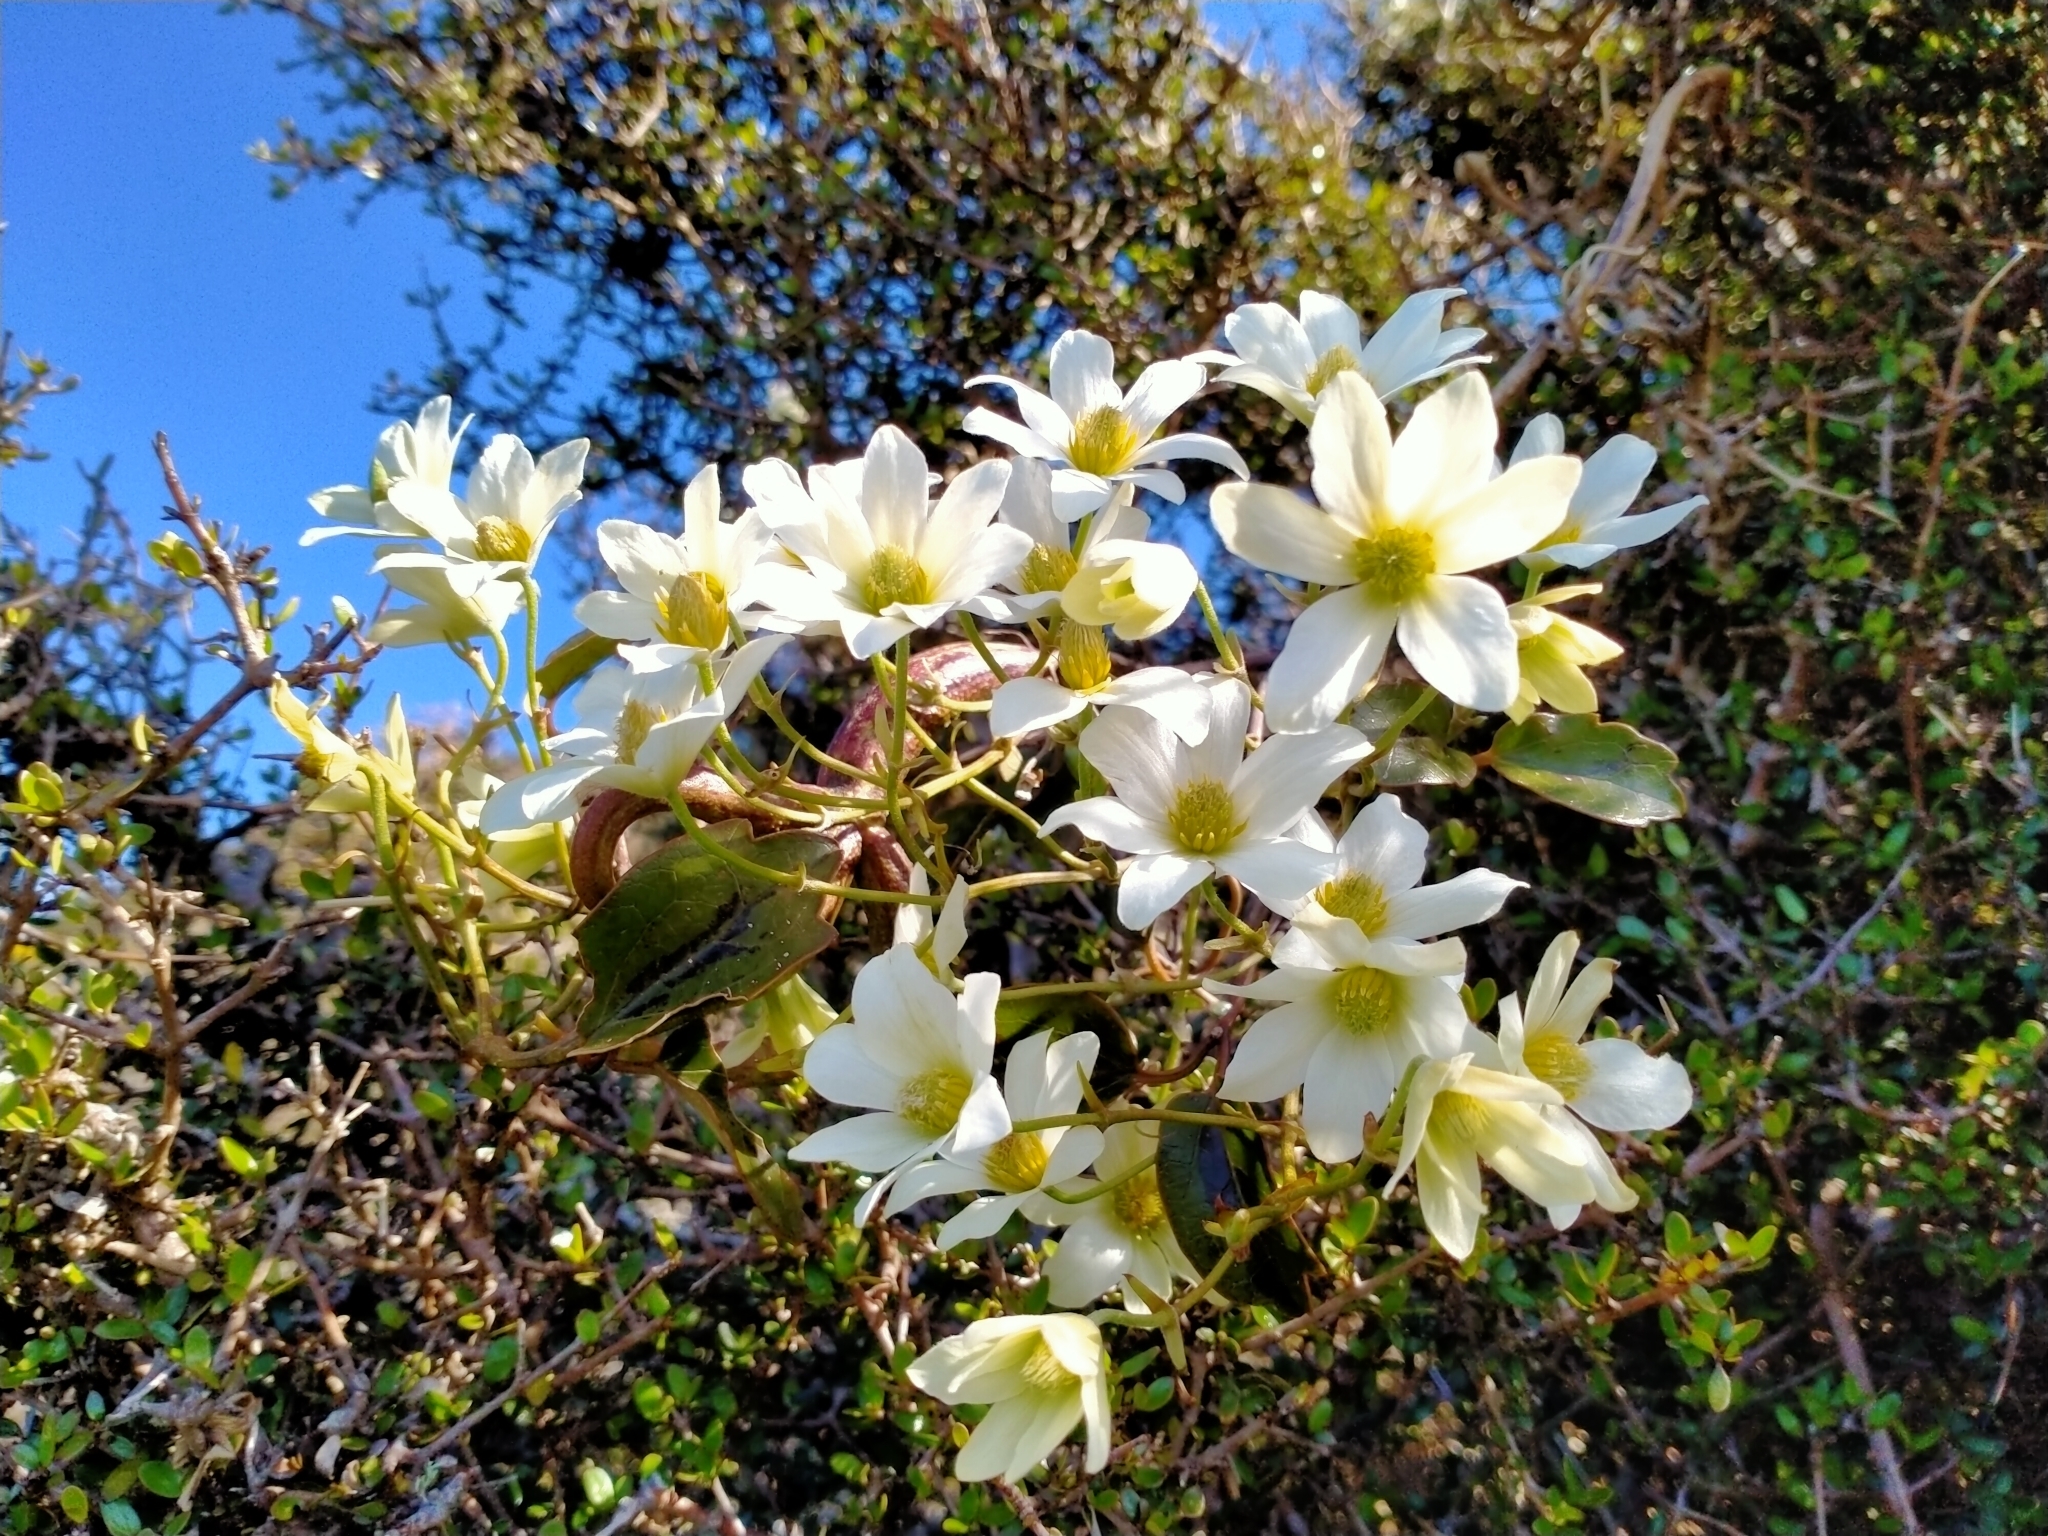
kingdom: Plantae
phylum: Tracheophyta
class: Magnoliopsida
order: Ranunculales
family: Ranunculaceae
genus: Clematis
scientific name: Clematis paniculata
